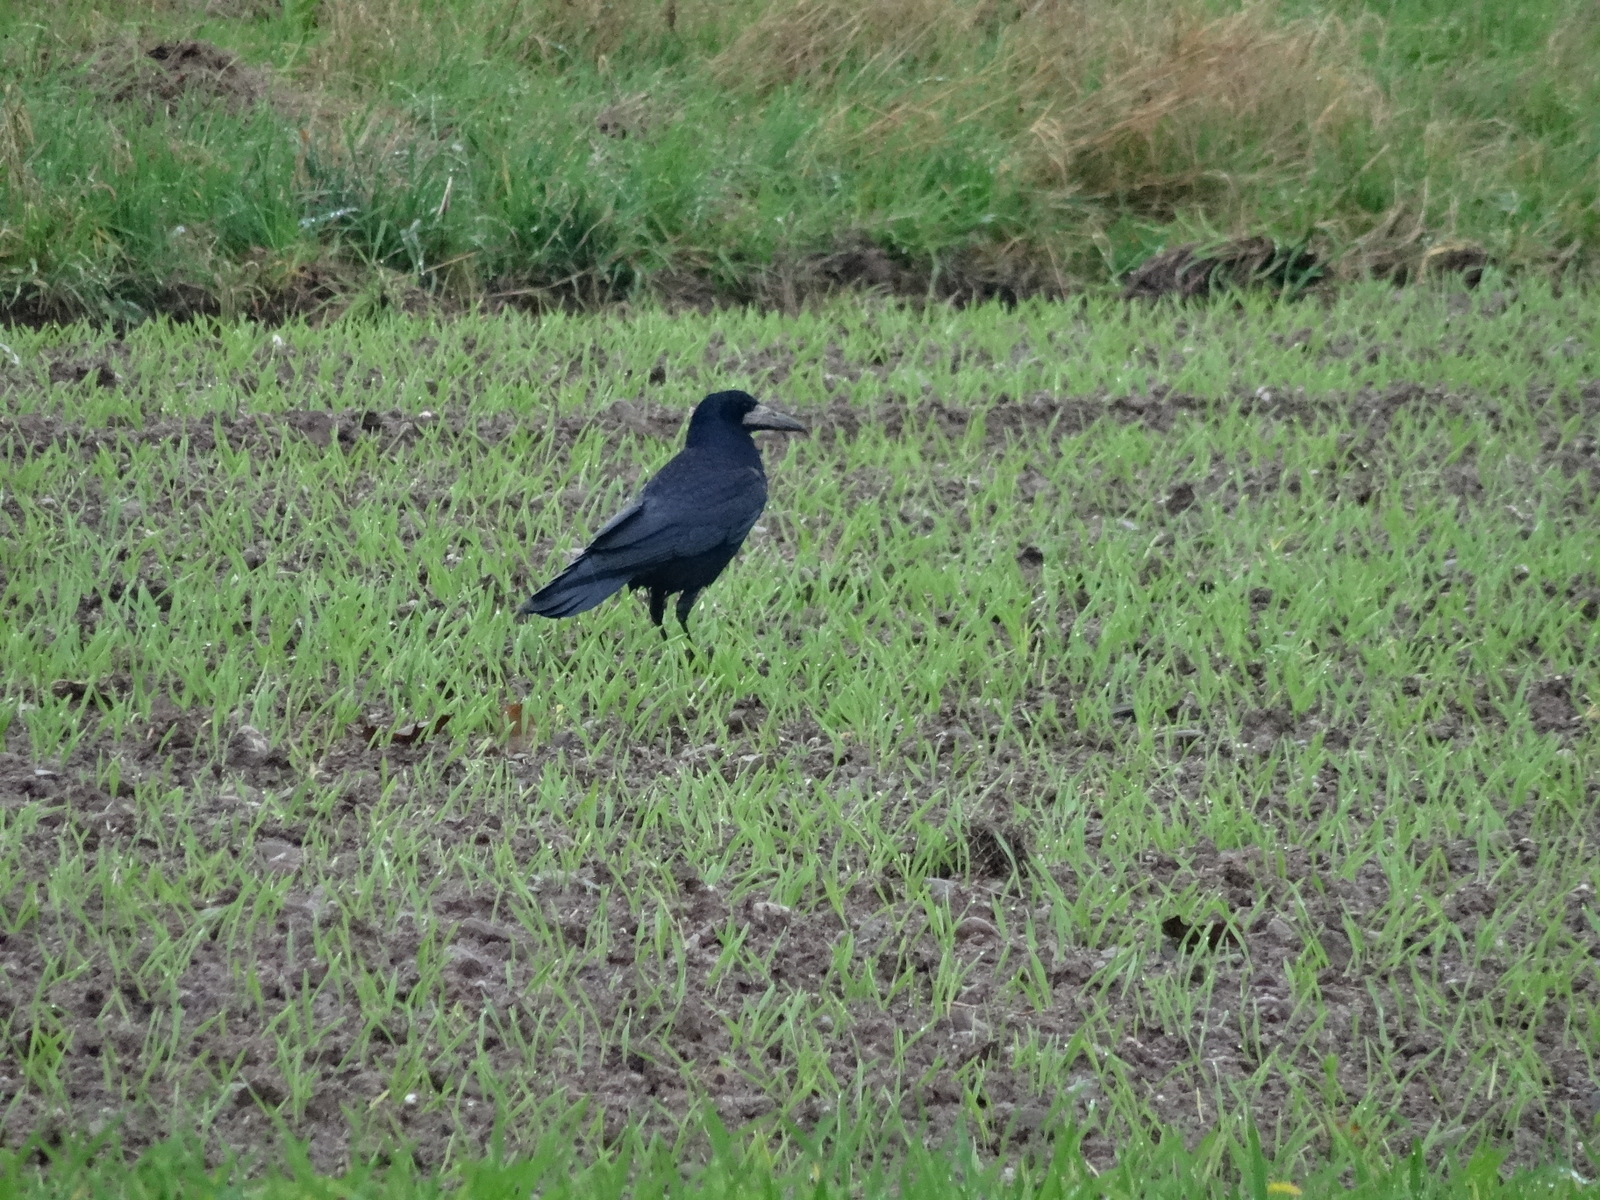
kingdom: Animalia
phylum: Chordata
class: Aves
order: Passeriformes
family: Corvidae
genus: Corvus
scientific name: Corvus frugilegus
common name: Rook
